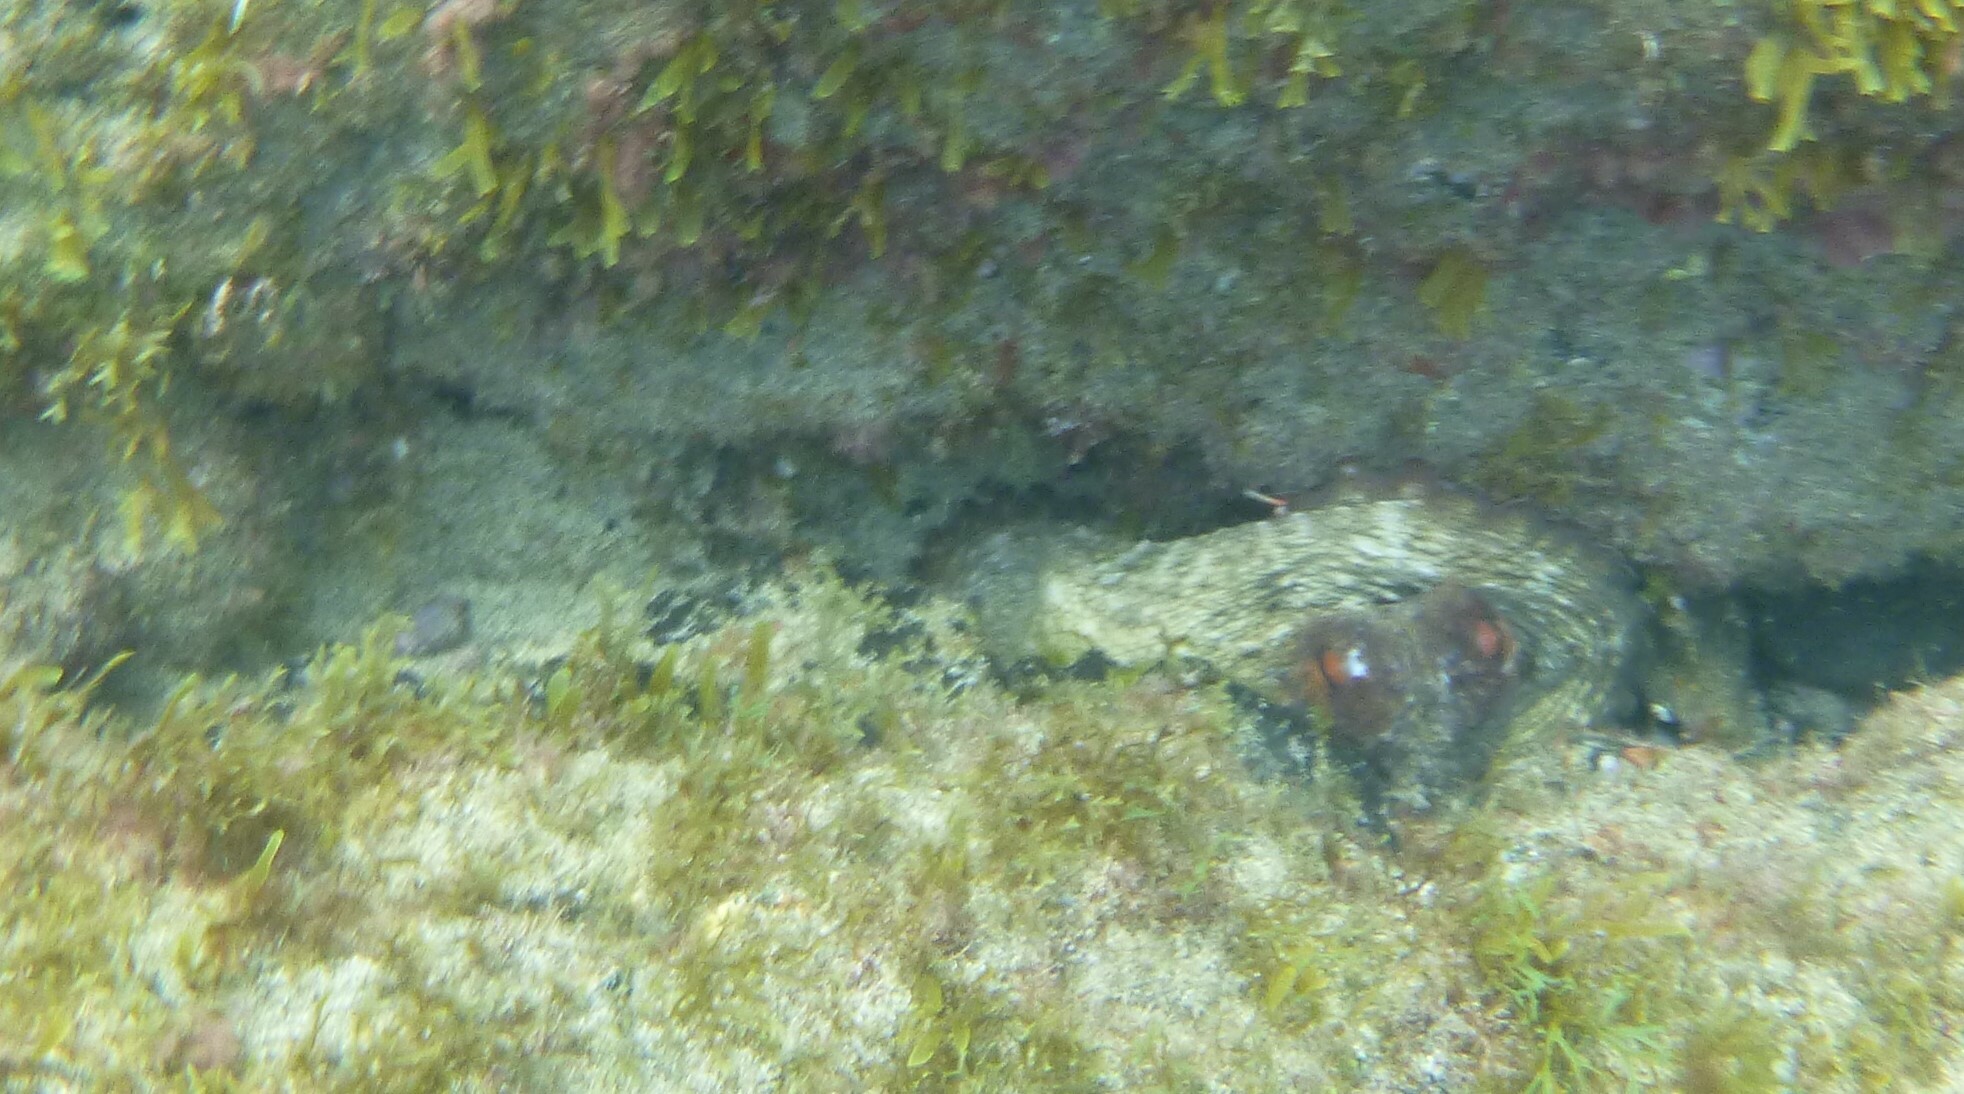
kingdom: Animalia
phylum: Mollusca
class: Cephalopoda
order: Octopoda
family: Octopodidae
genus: Octopus
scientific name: Octopus vulgaris
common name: Common octopus
